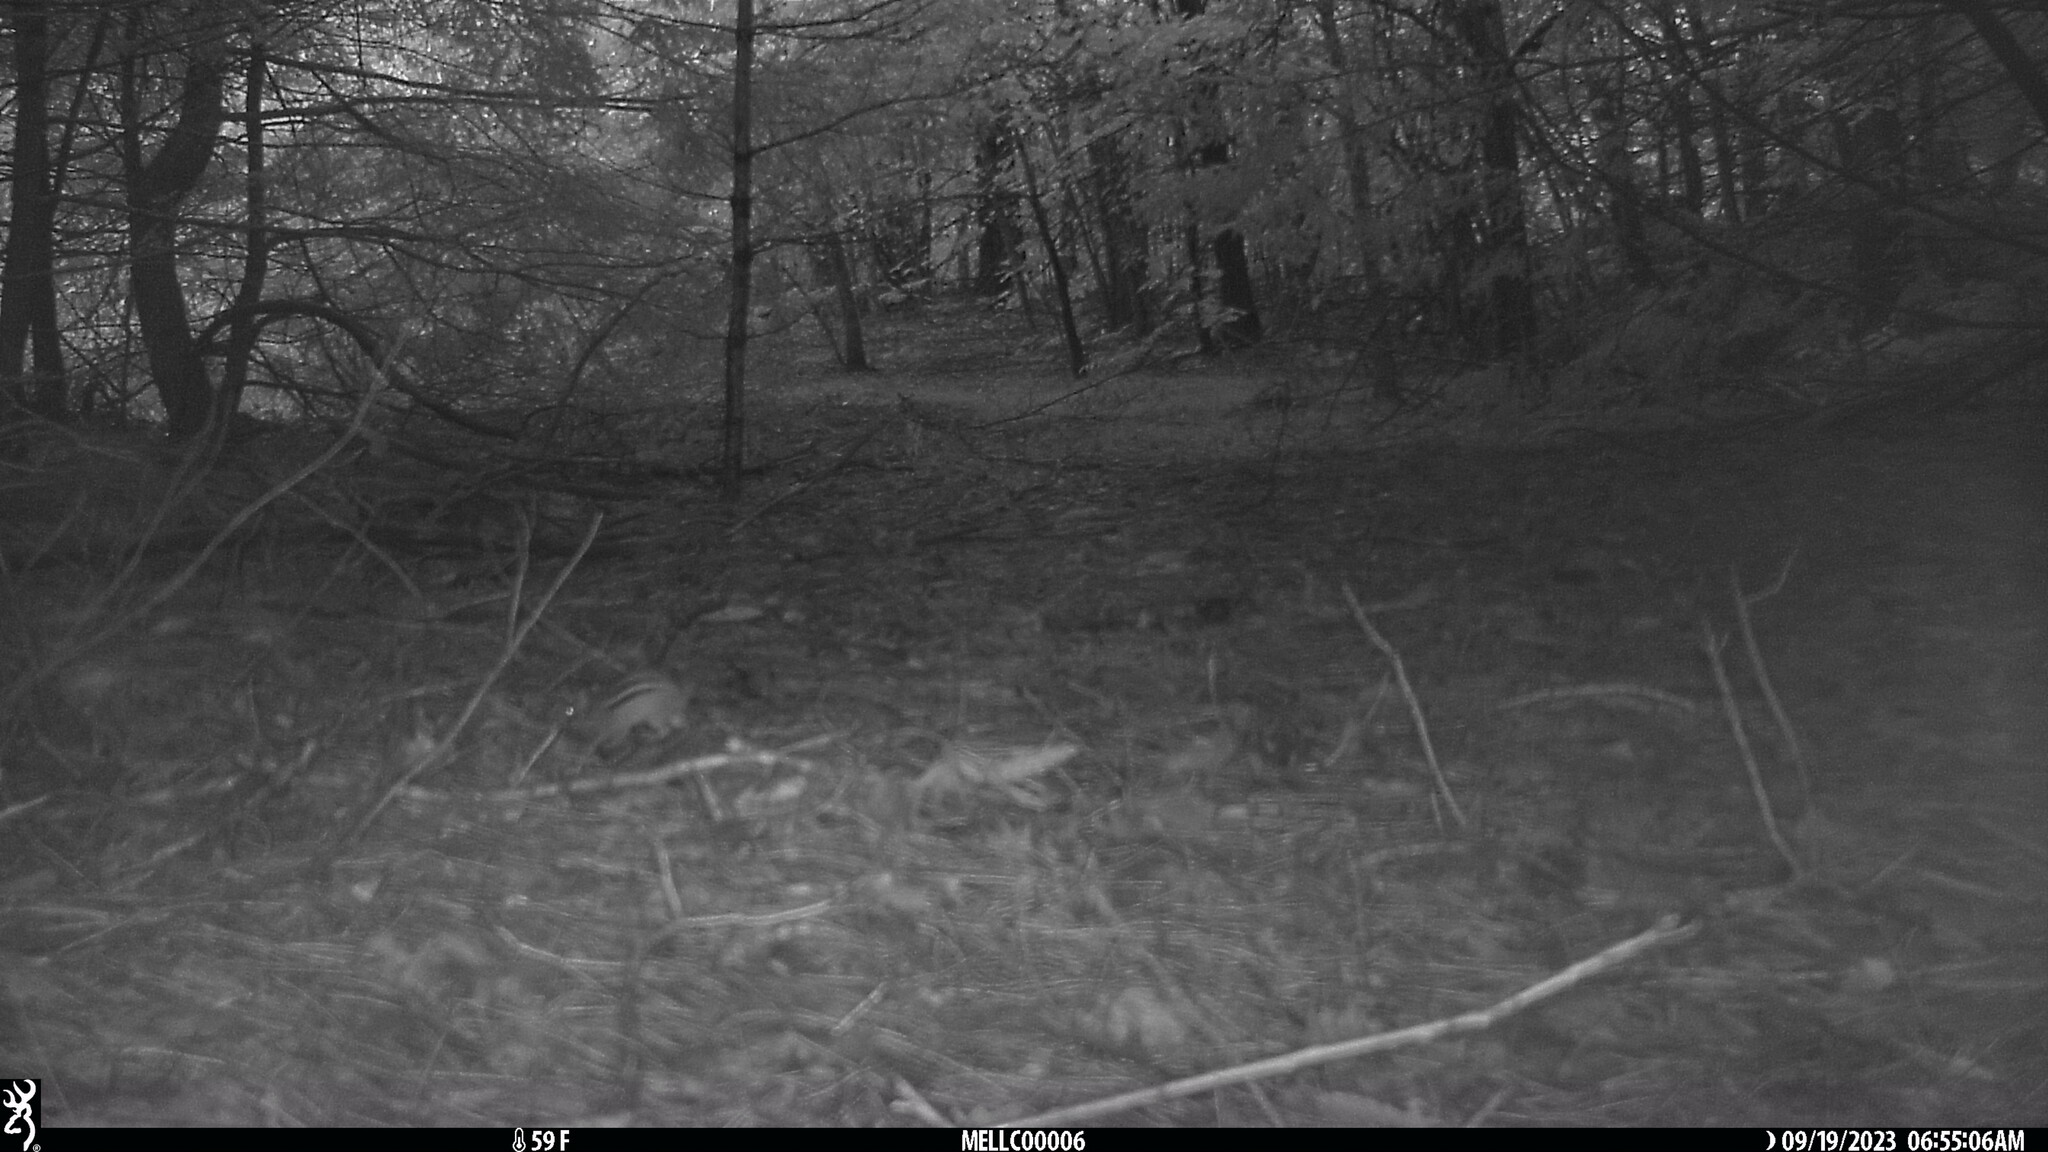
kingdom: Animalia
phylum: Chordata
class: Mammalia
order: Rodentia
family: Sciuridae
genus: Tamias
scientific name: Tamias striatus
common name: Eastern chipmunk
